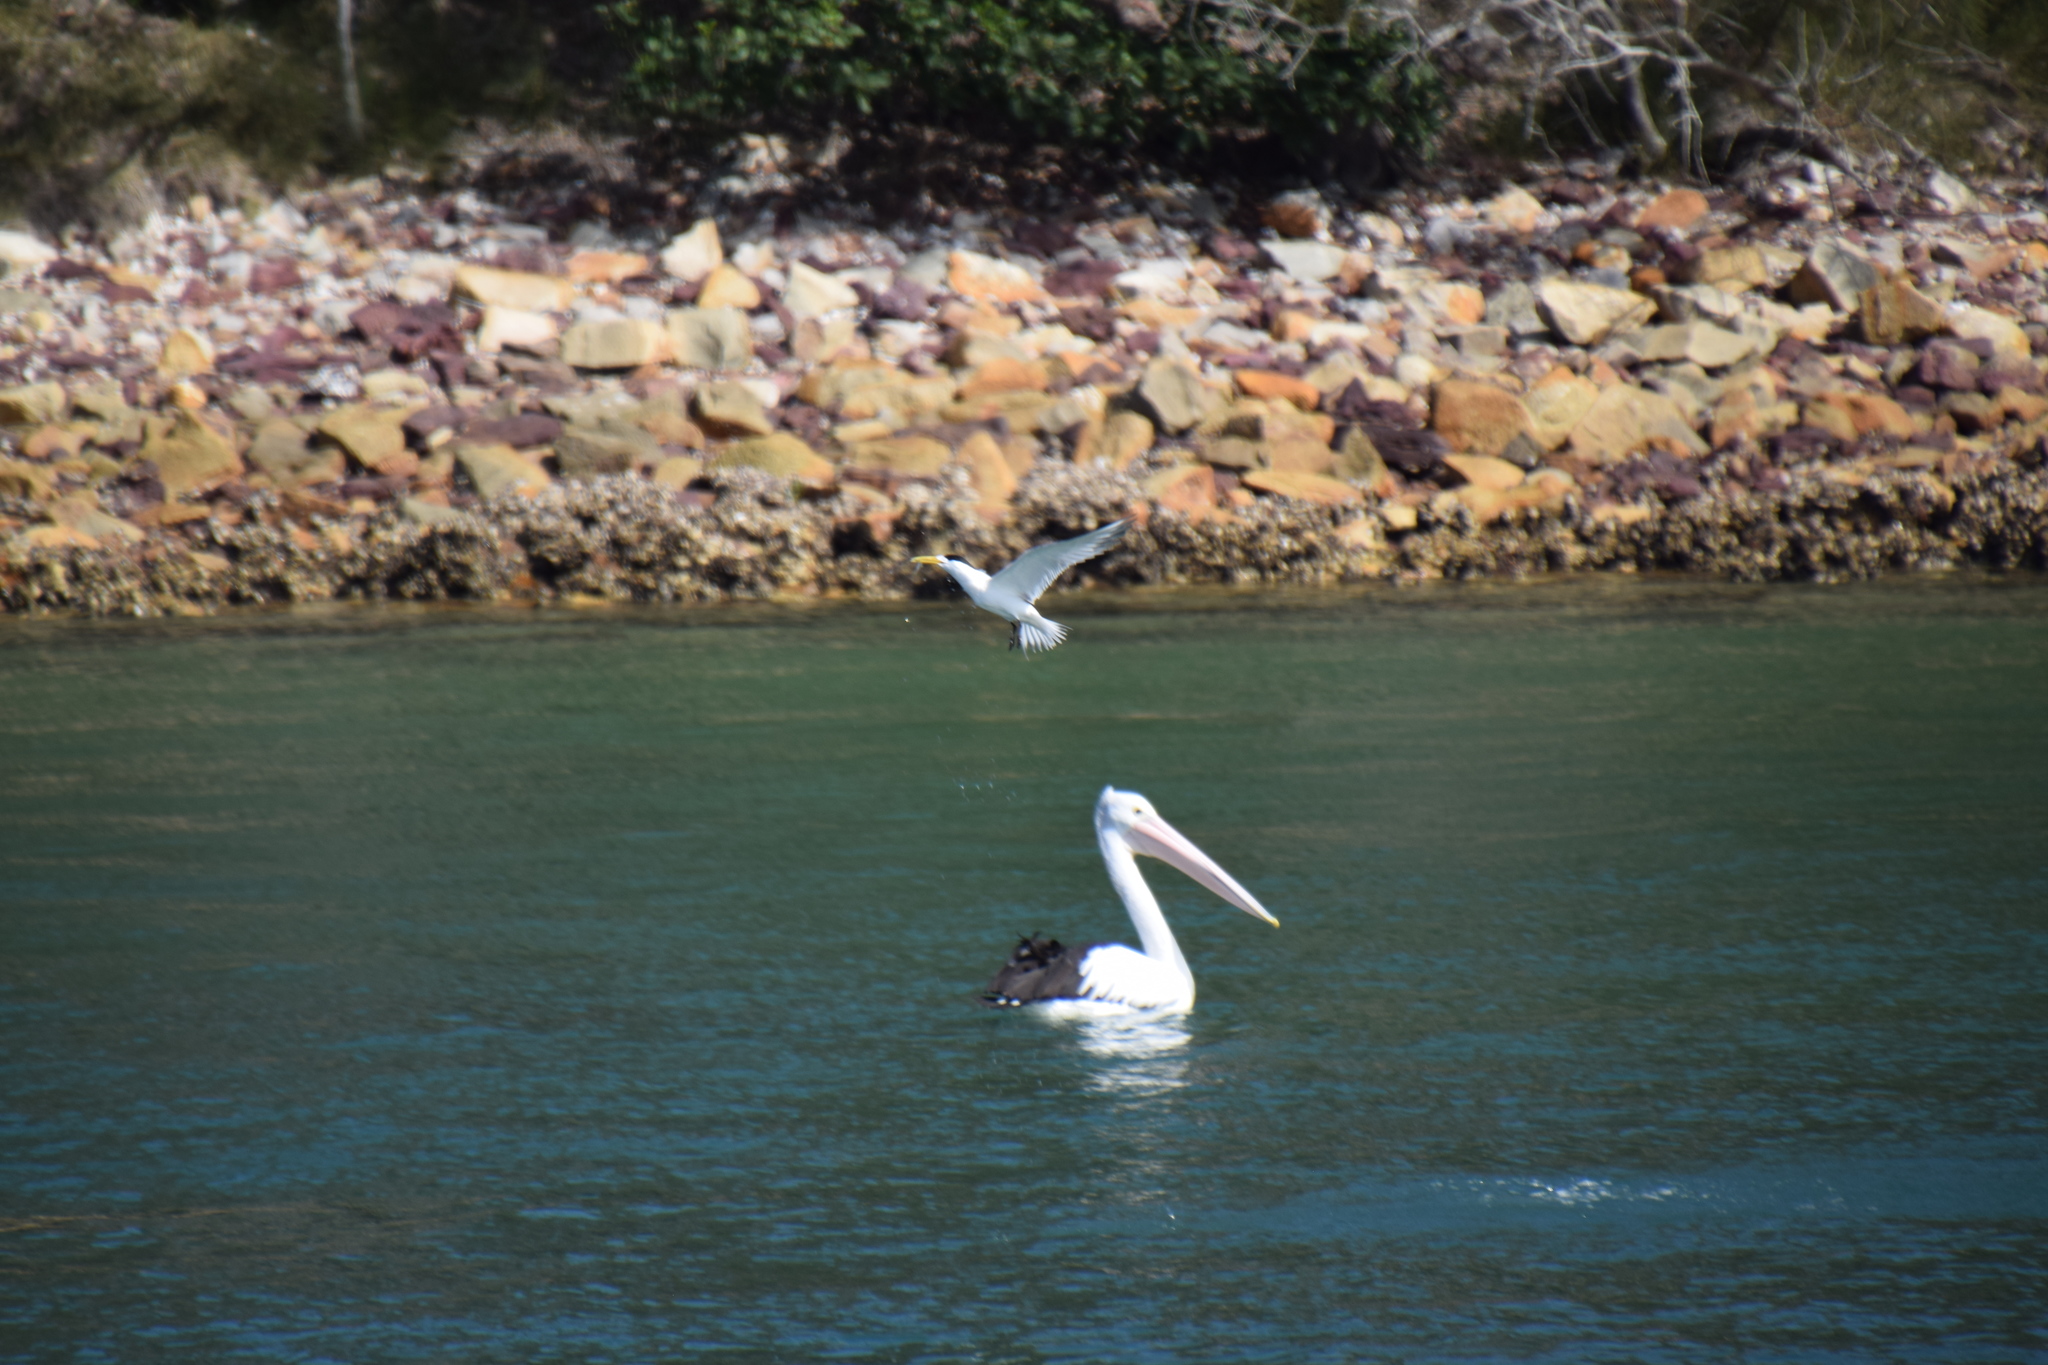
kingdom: Animalia
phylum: Chordata
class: Aves
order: Charadriiformes
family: Laridae
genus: Thalasseus
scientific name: Thalasseus bergii
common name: Greater crested tern
